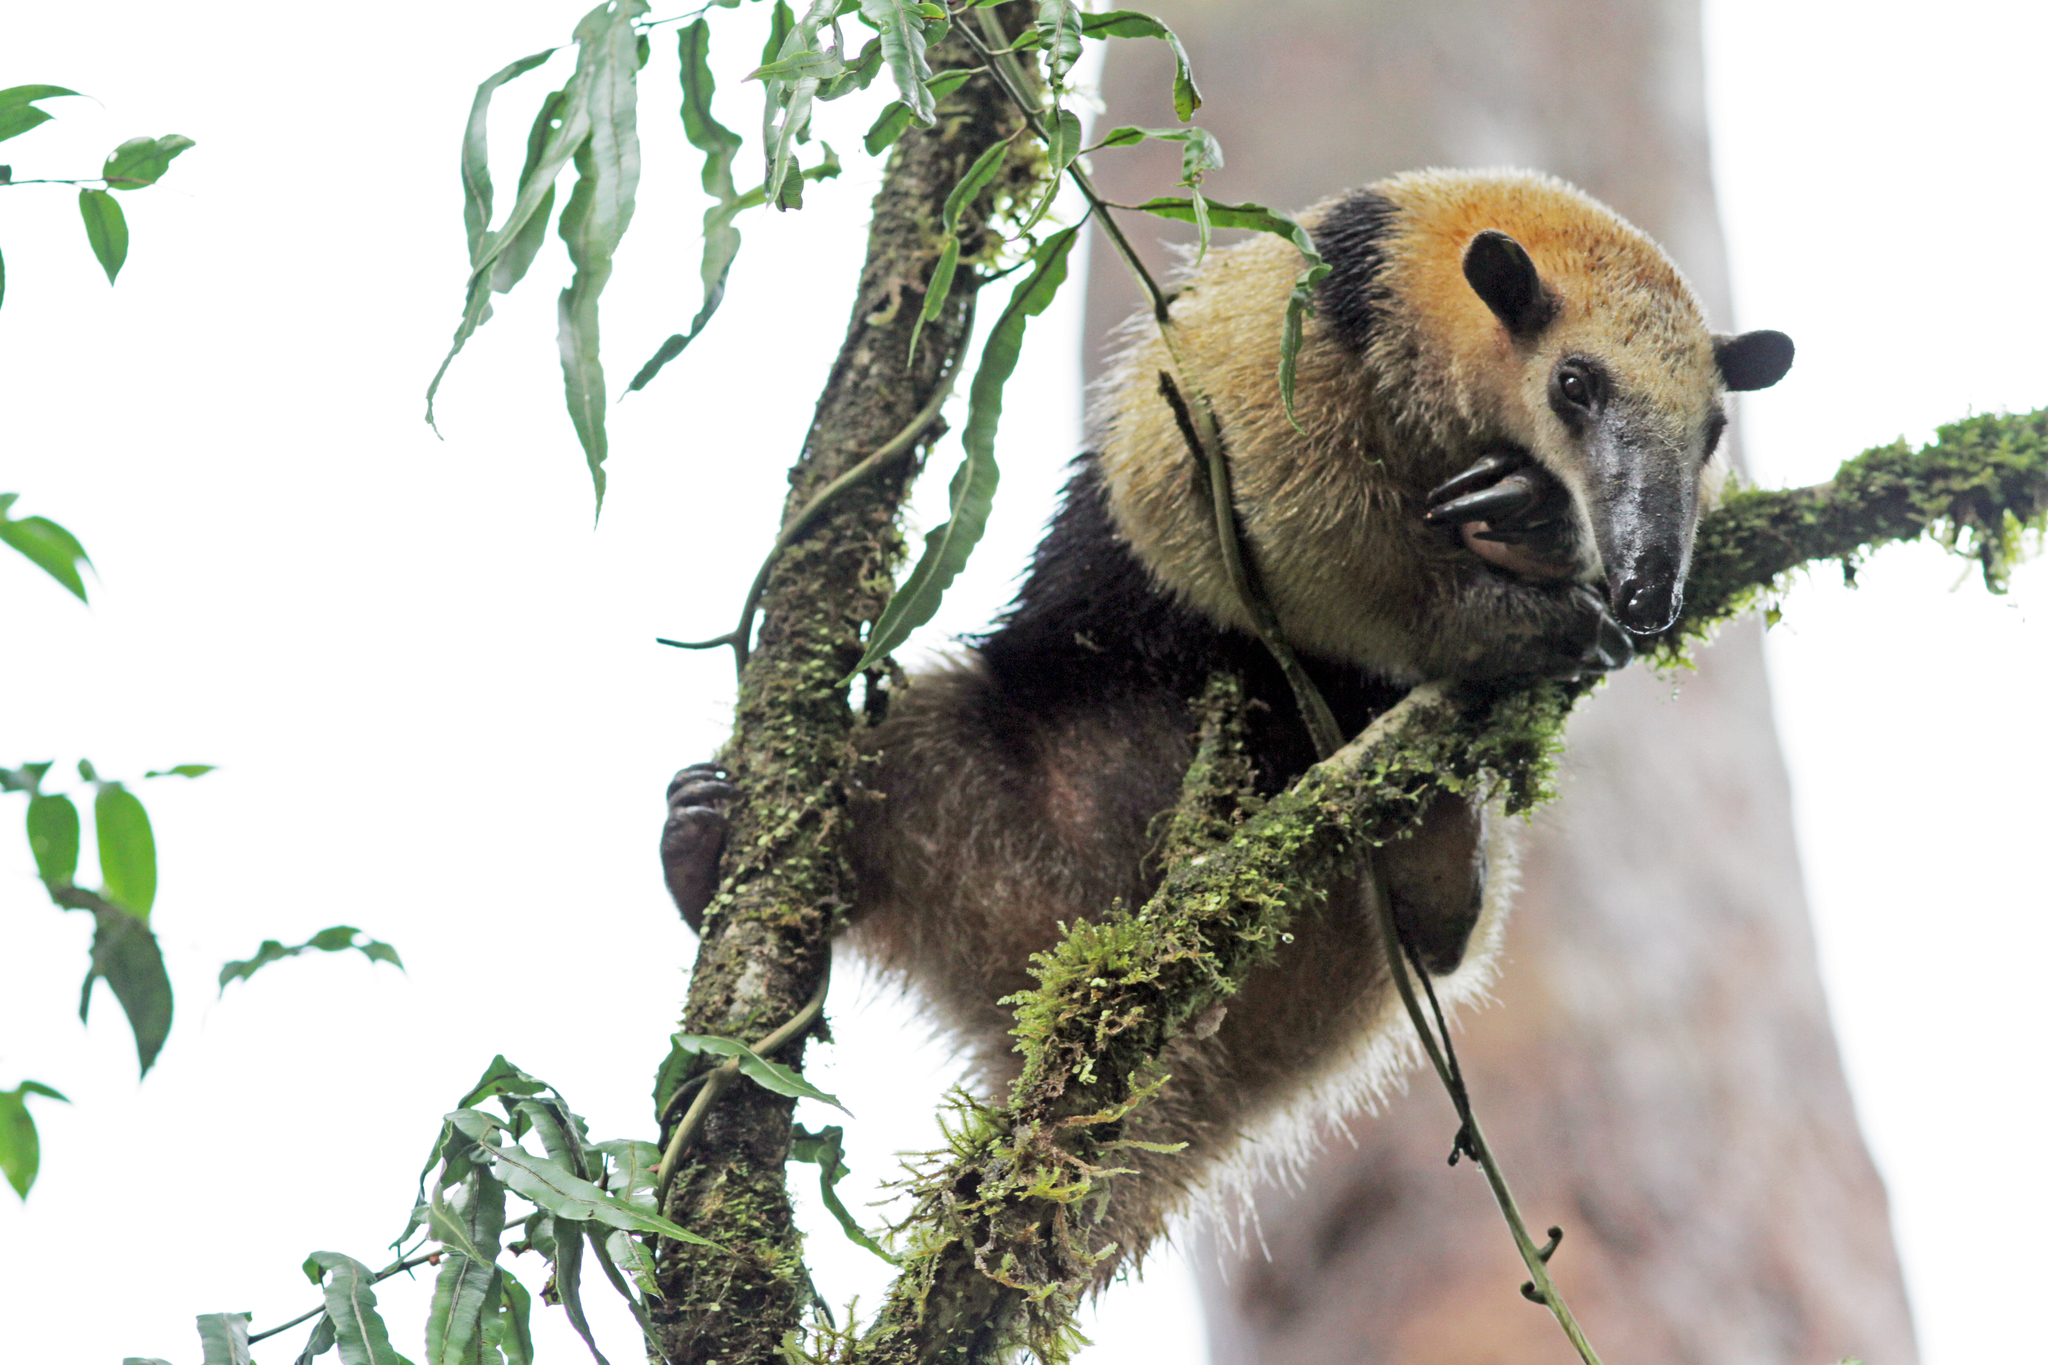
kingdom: Animalia
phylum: Chordata
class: Mammalia
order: Pilosa
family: Myrmecophagidae
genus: Tamandua
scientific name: Tamandua mexicana
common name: Northern tamandua
